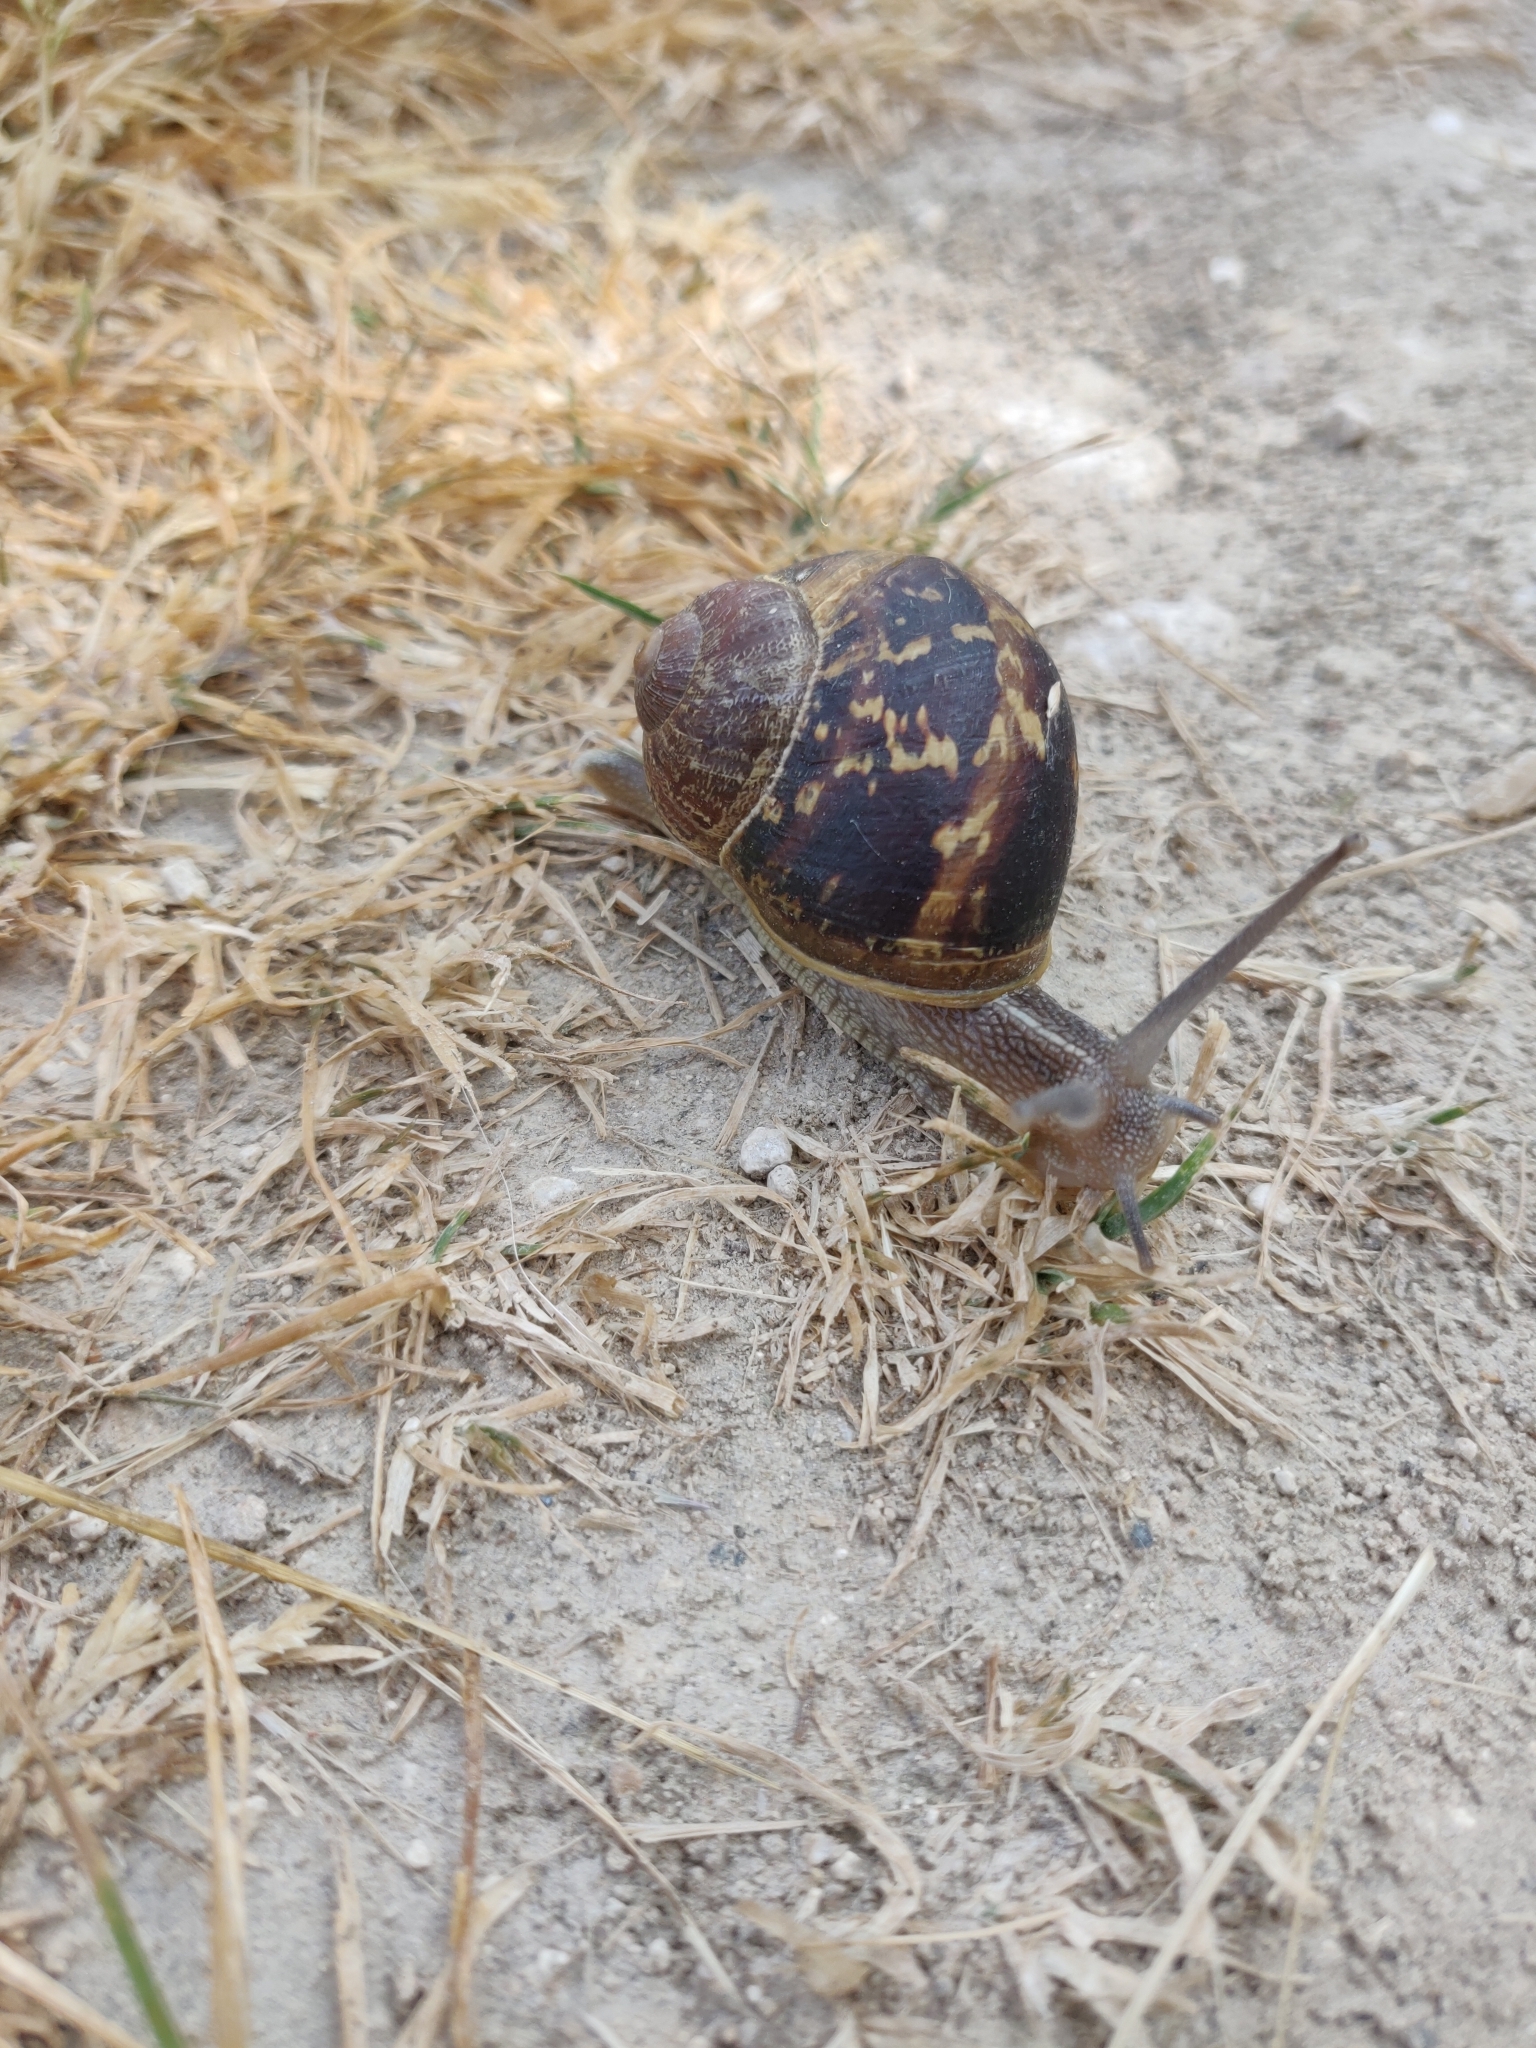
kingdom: Animalia
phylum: Mollusca
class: Gastropoda
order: Stylommatophora
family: Helicidae
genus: Cornu
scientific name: Cornu aspersum
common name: Brown garden snail
